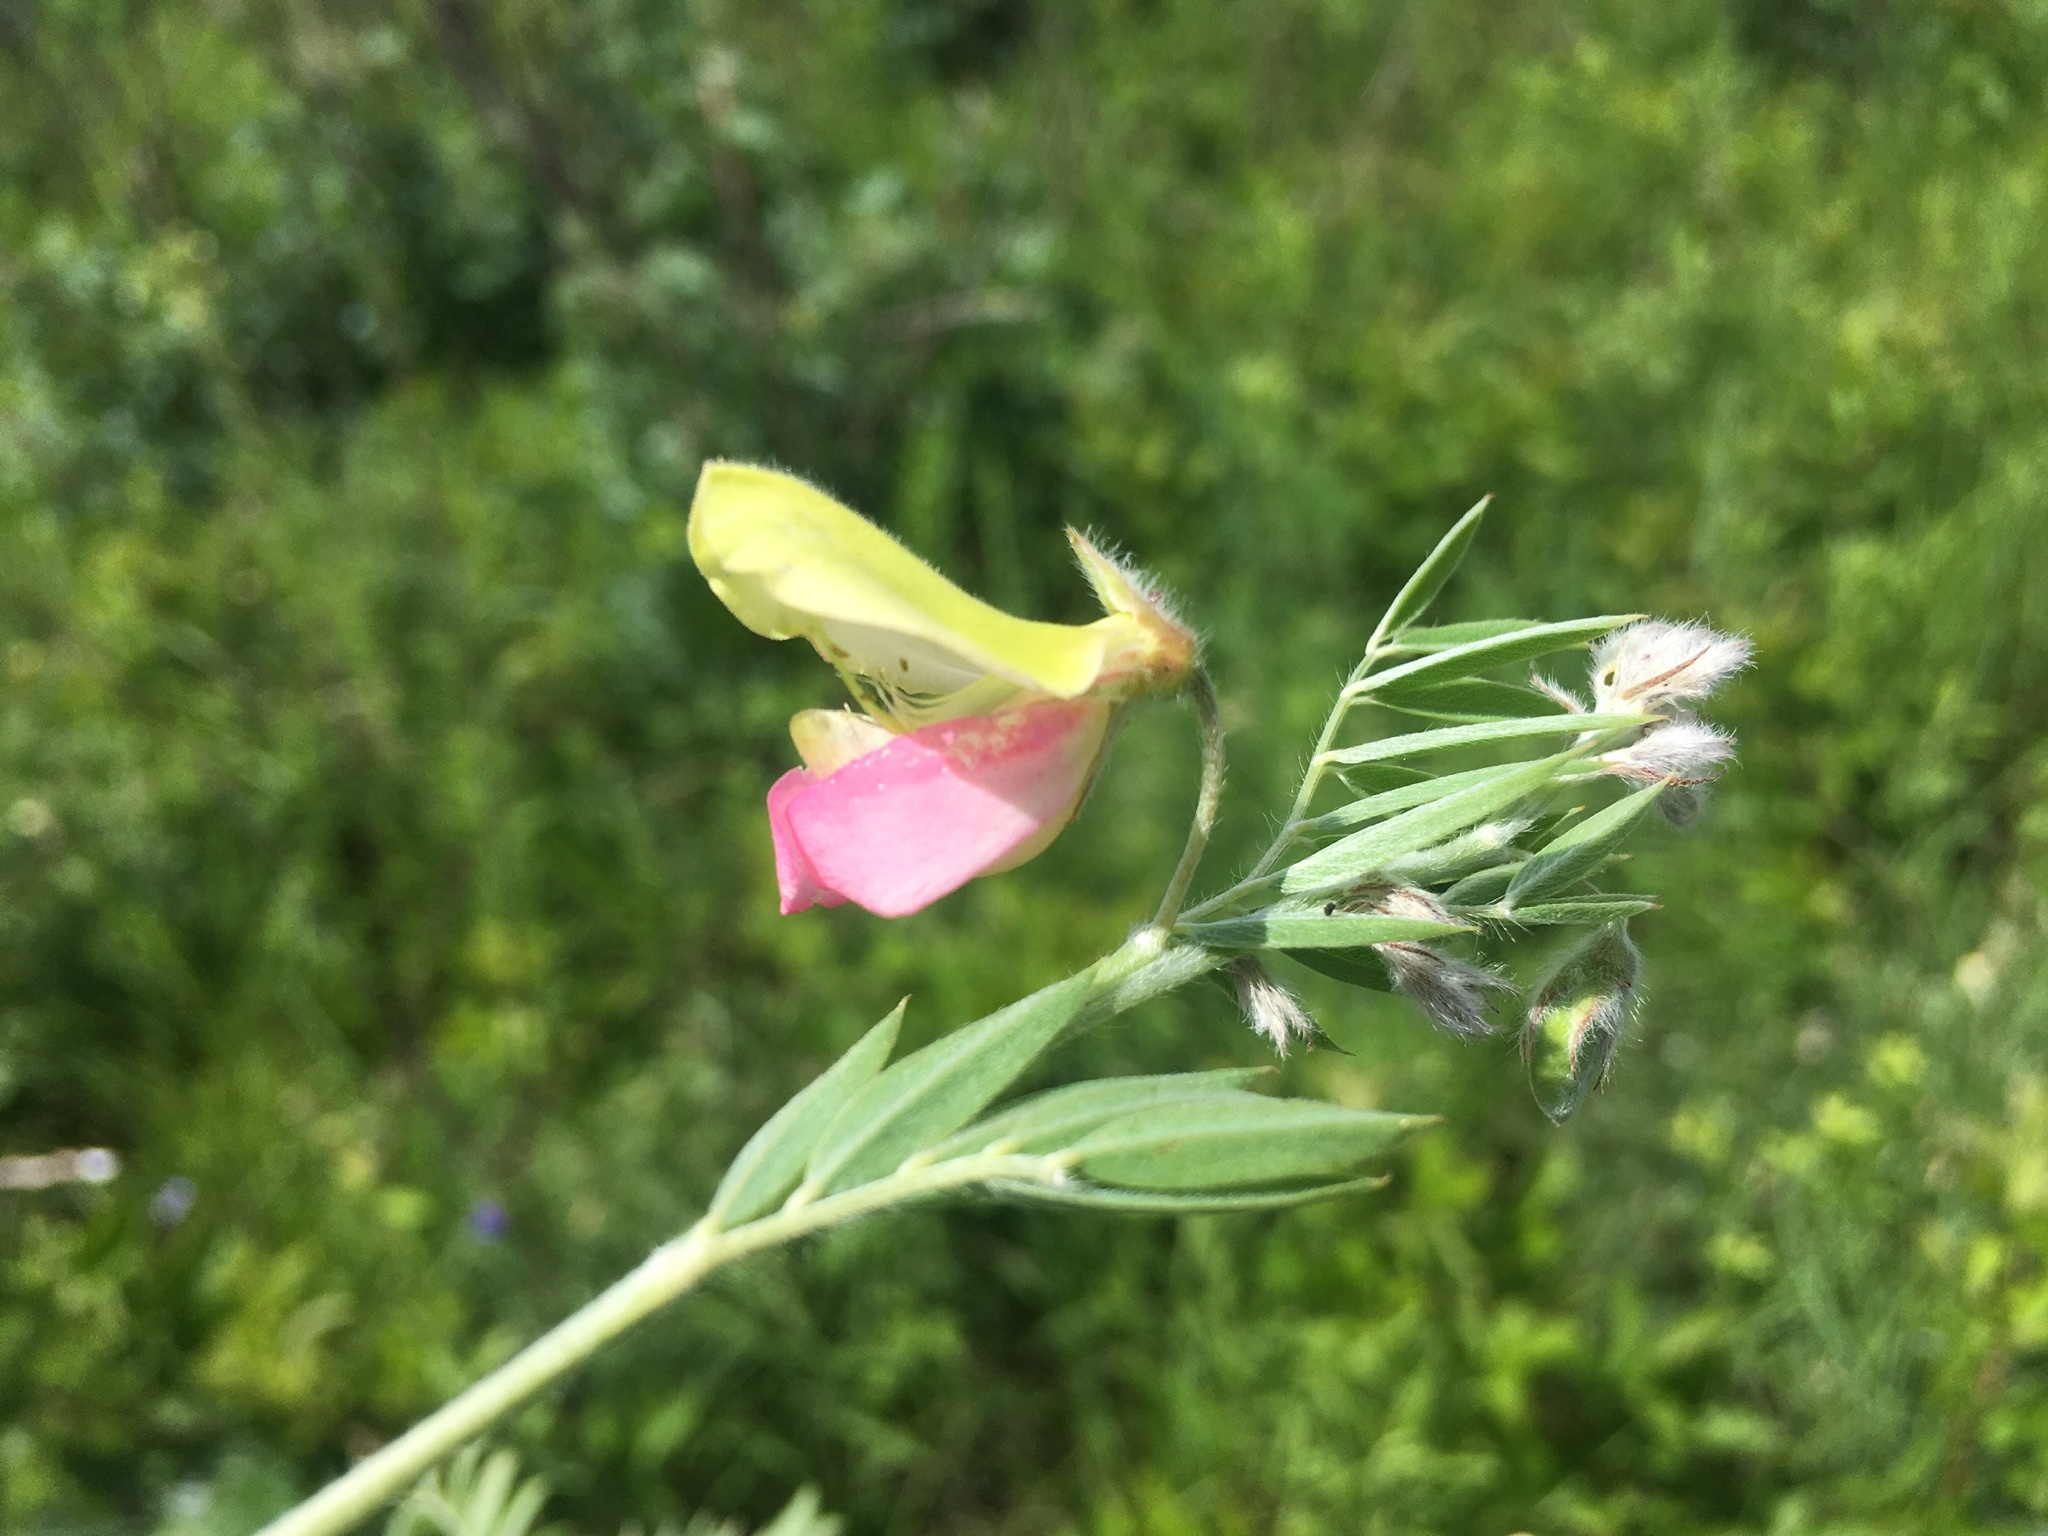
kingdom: Plantae
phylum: Tracheophyta
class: Magnoliopsida
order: Fabales
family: Fabaceae
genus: Tephrosia
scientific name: Tephrosia virginiana
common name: Rabbit-pea
